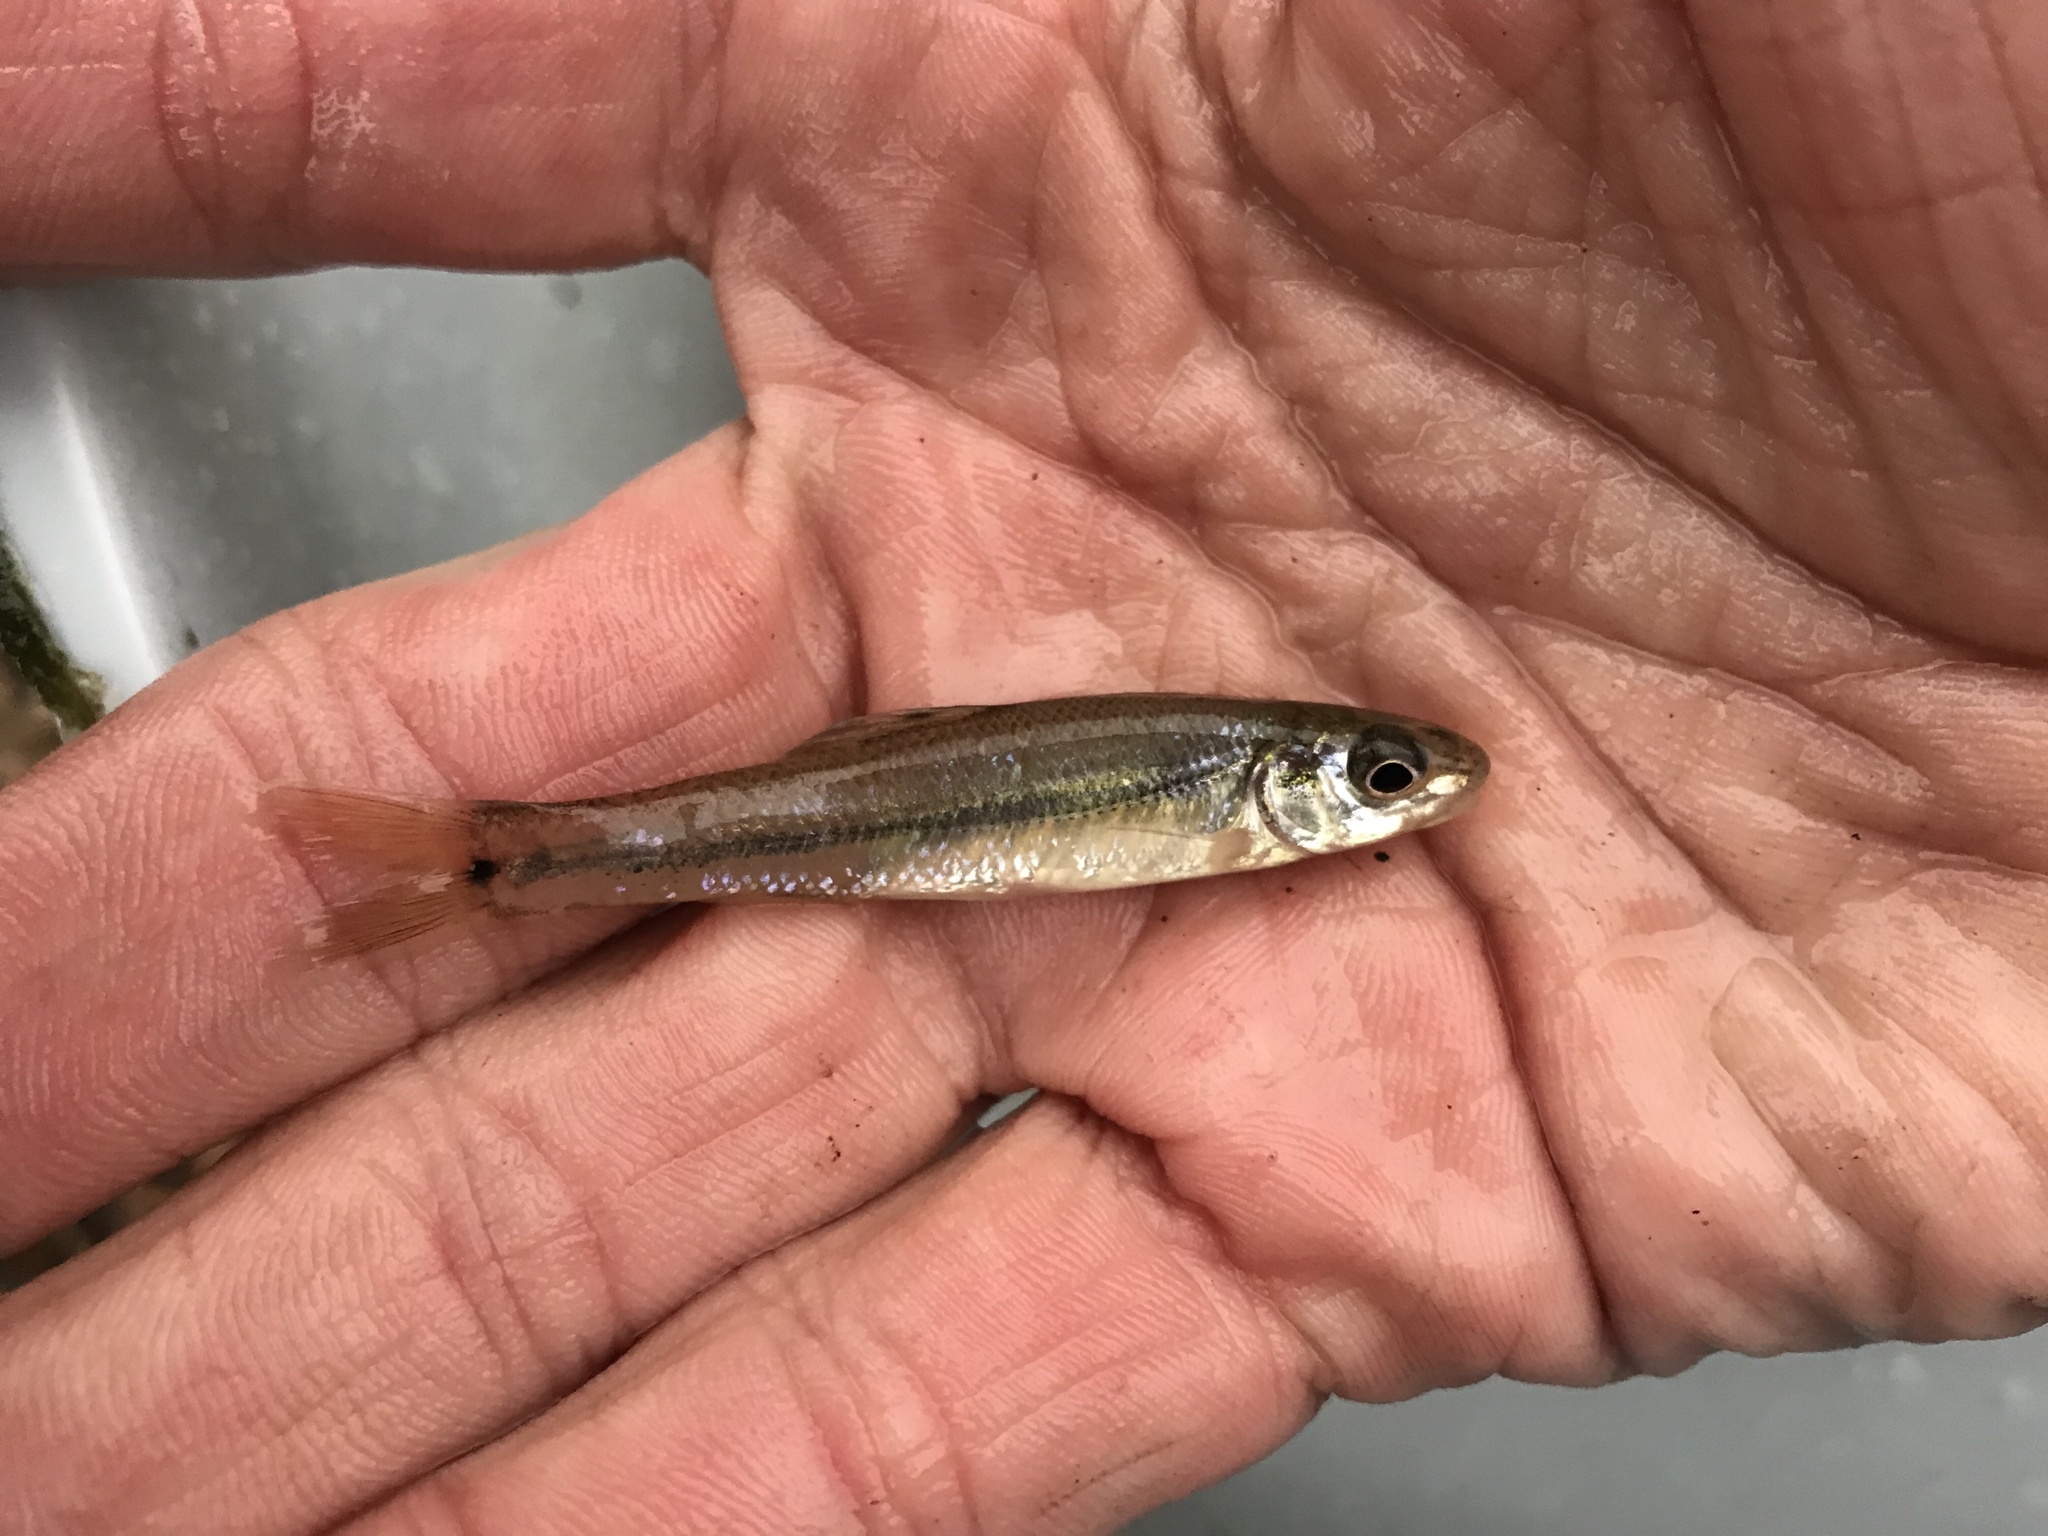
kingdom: Animalia
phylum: Chordata
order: Cypriniformes
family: Cyprinidae
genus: Pimephales
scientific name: Pimephales vigilax
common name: Bullhead minnow
